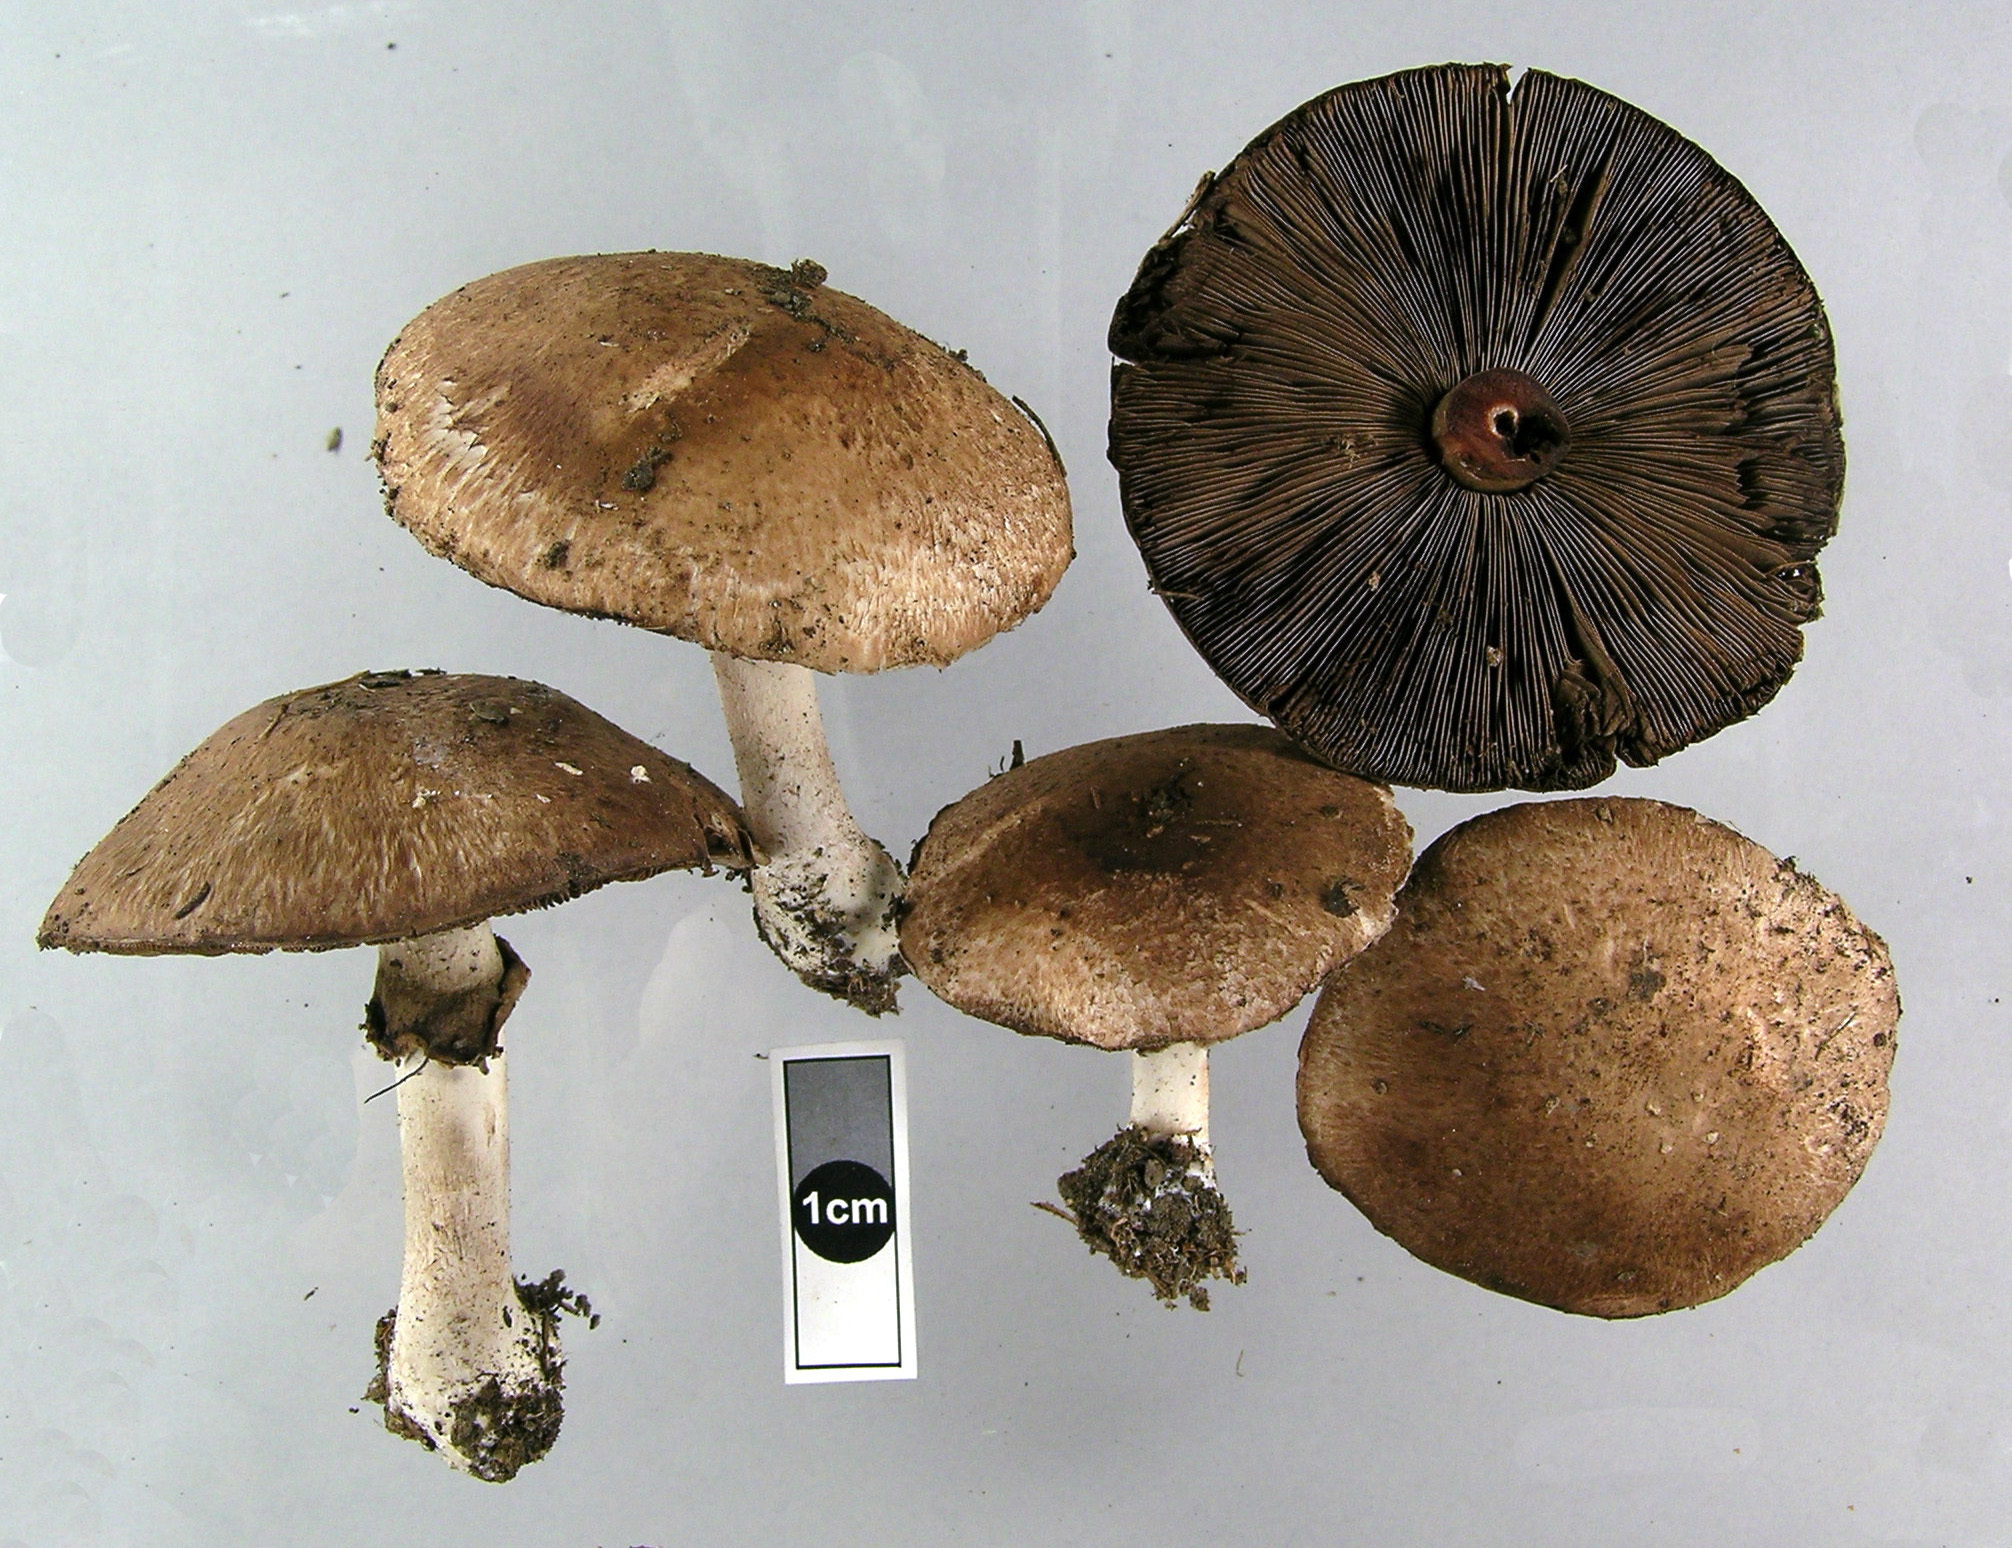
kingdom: Fungi
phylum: Basidiomycota
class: Agaricomycetes
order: Agaricales
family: Agaricaceae
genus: Agaricus
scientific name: Agaricus sylvaticus
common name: Blushing wood mushroom
